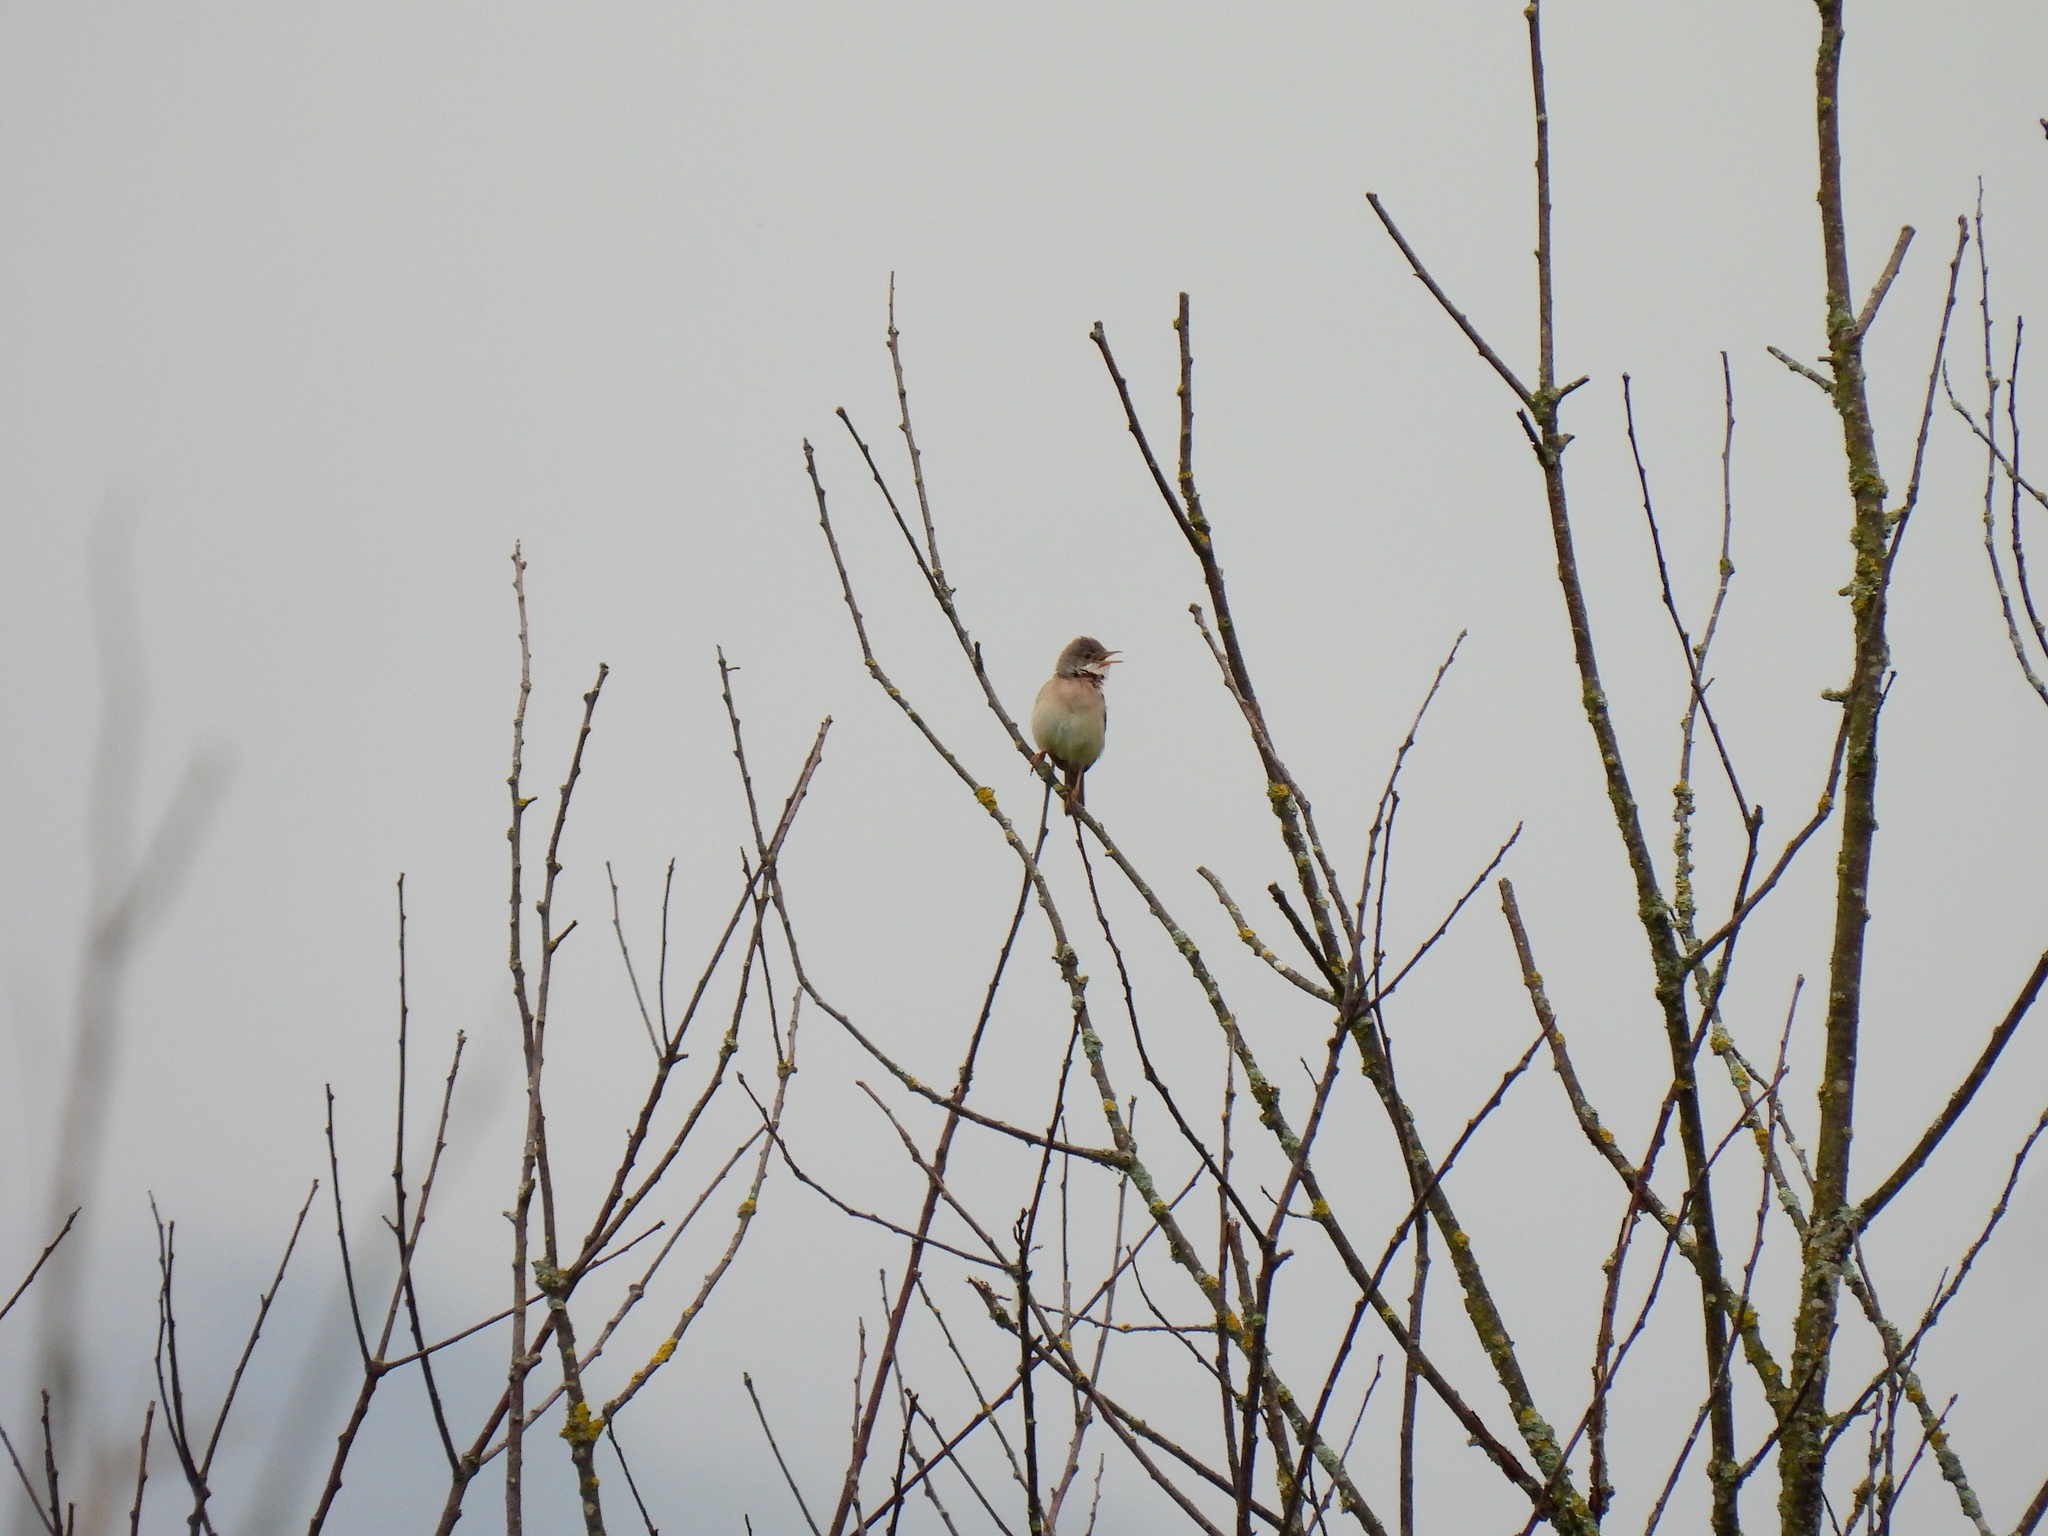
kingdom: Animalia
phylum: Chordata
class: Aves
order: Passeriformes
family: Sylviidae
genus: Sylvia
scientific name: Sylvia communis
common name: Common whitethroat
